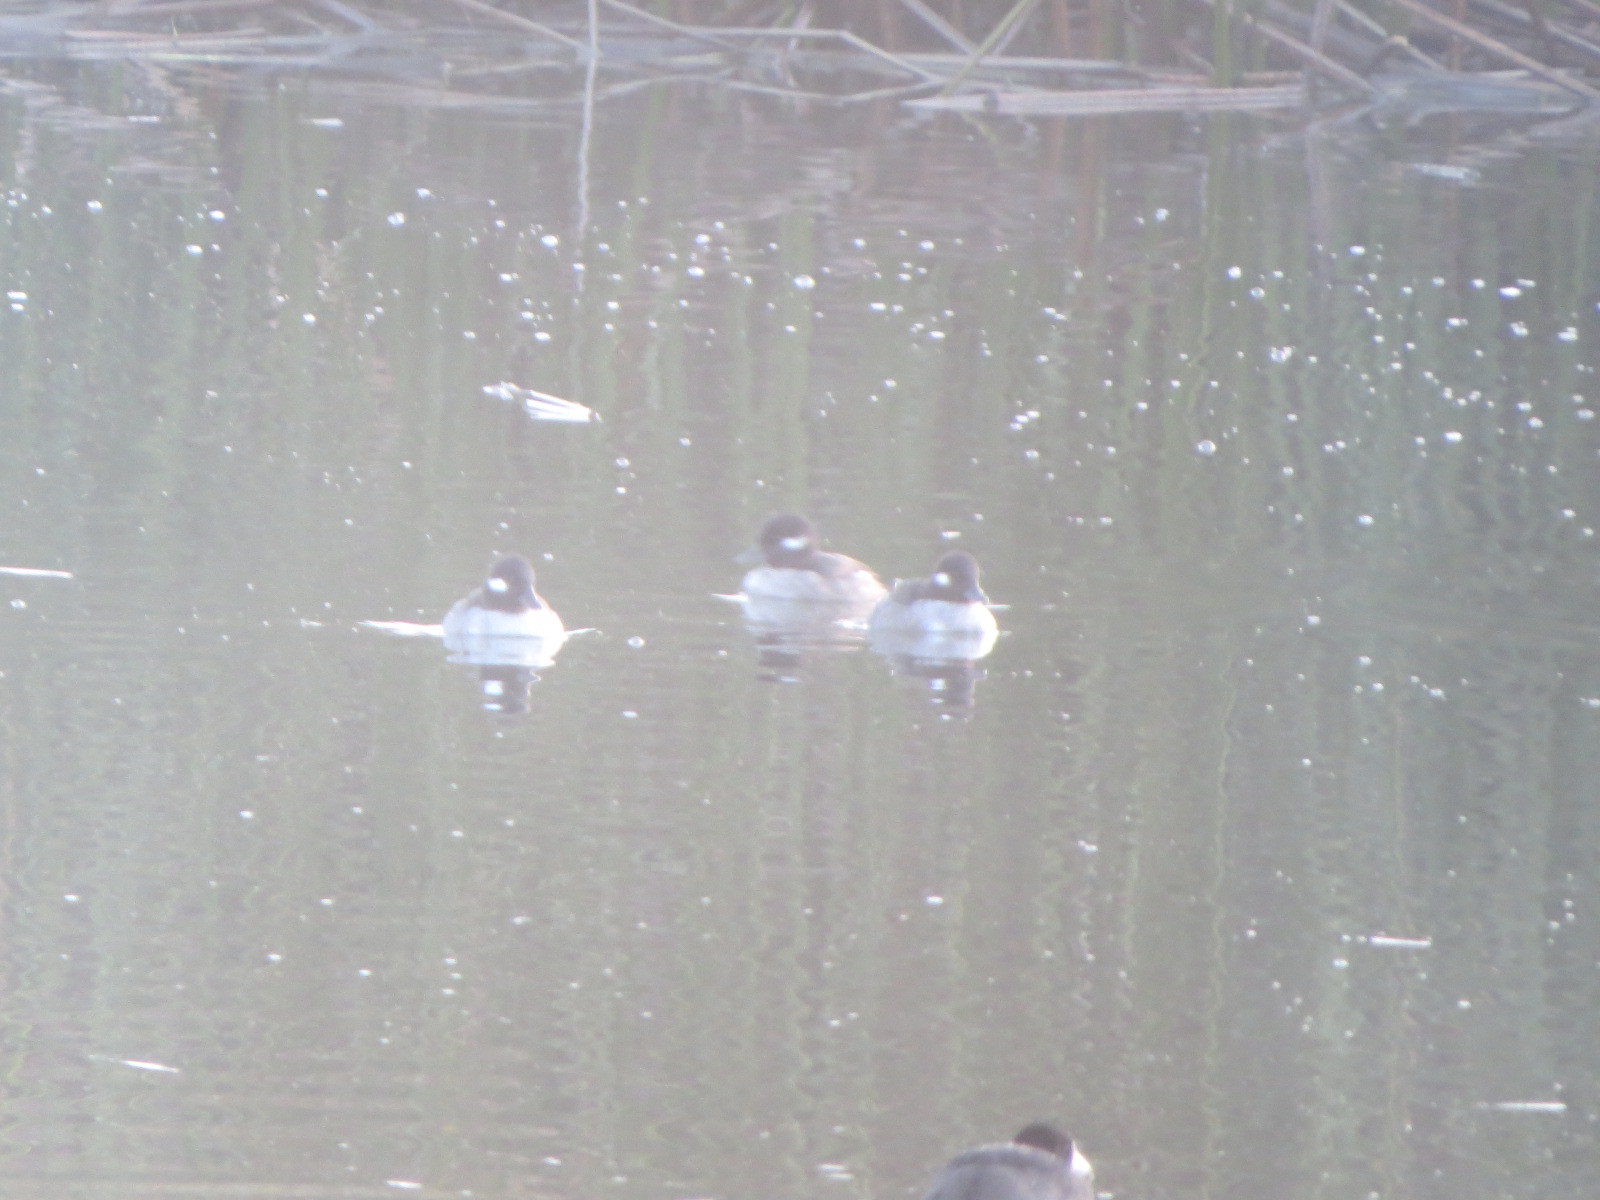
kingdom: Animalia
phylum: Chordata
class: Aves
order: Anseriformes
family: Anatidae
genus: Bucephala
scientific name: Bucephala albeola
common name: Bufflehead
